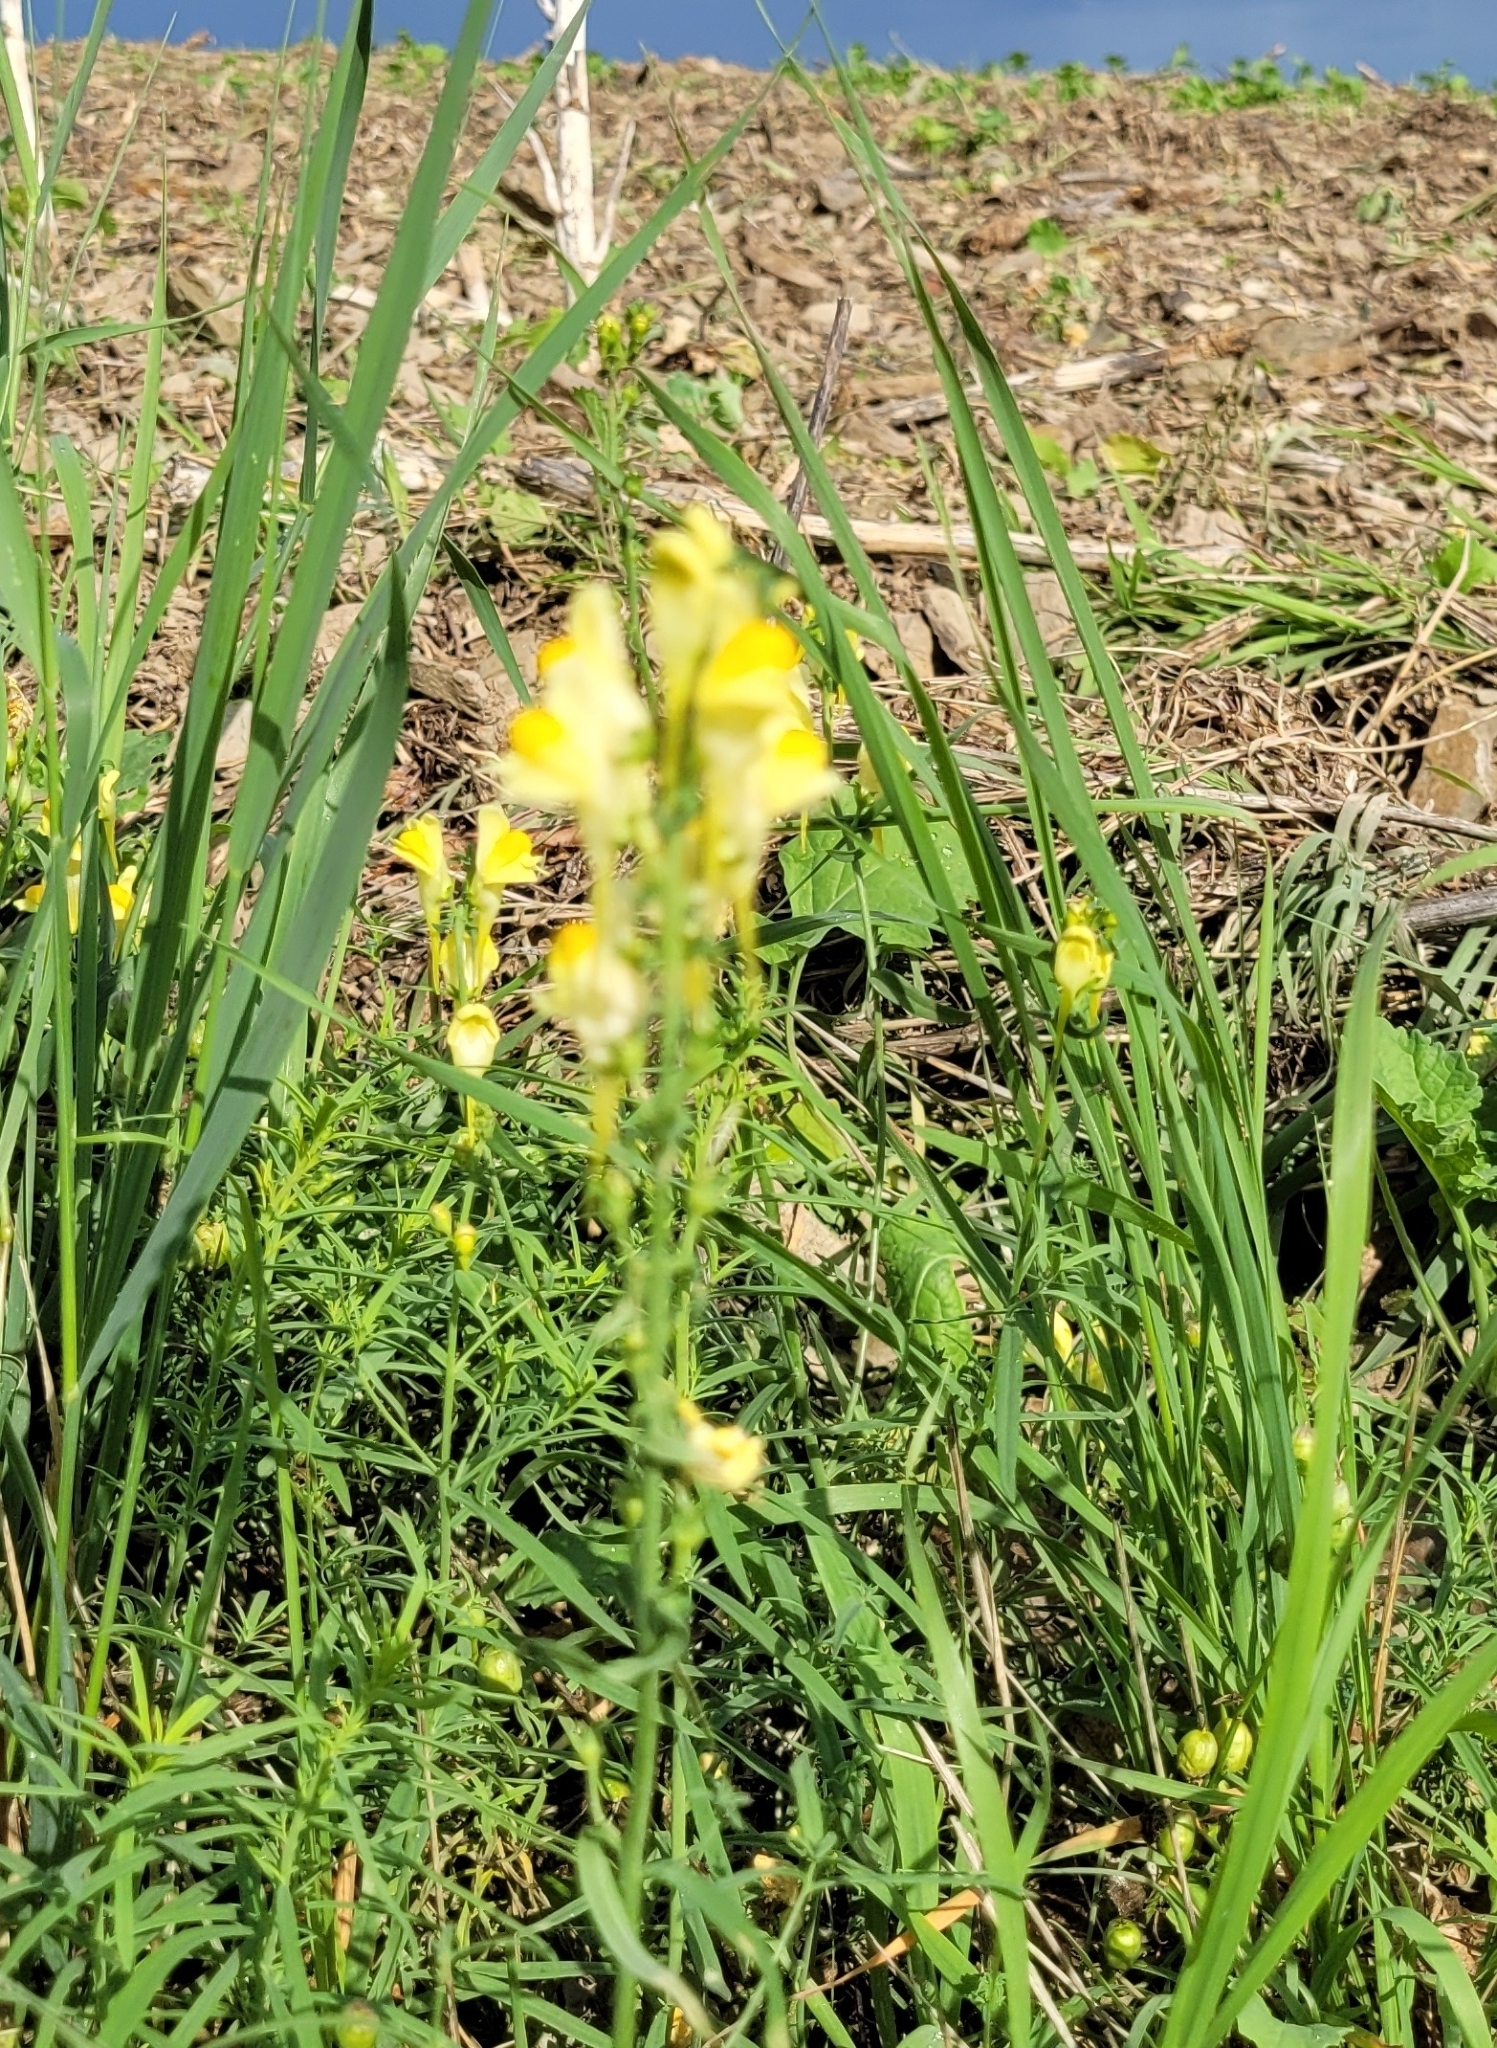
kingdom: Plantae
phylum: Tracheophyta
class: Magnoliopsida
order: Lamiales
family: Plantaginaceae
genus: Linaria
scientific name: Linaria vulgaris
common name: Butter and eggs
